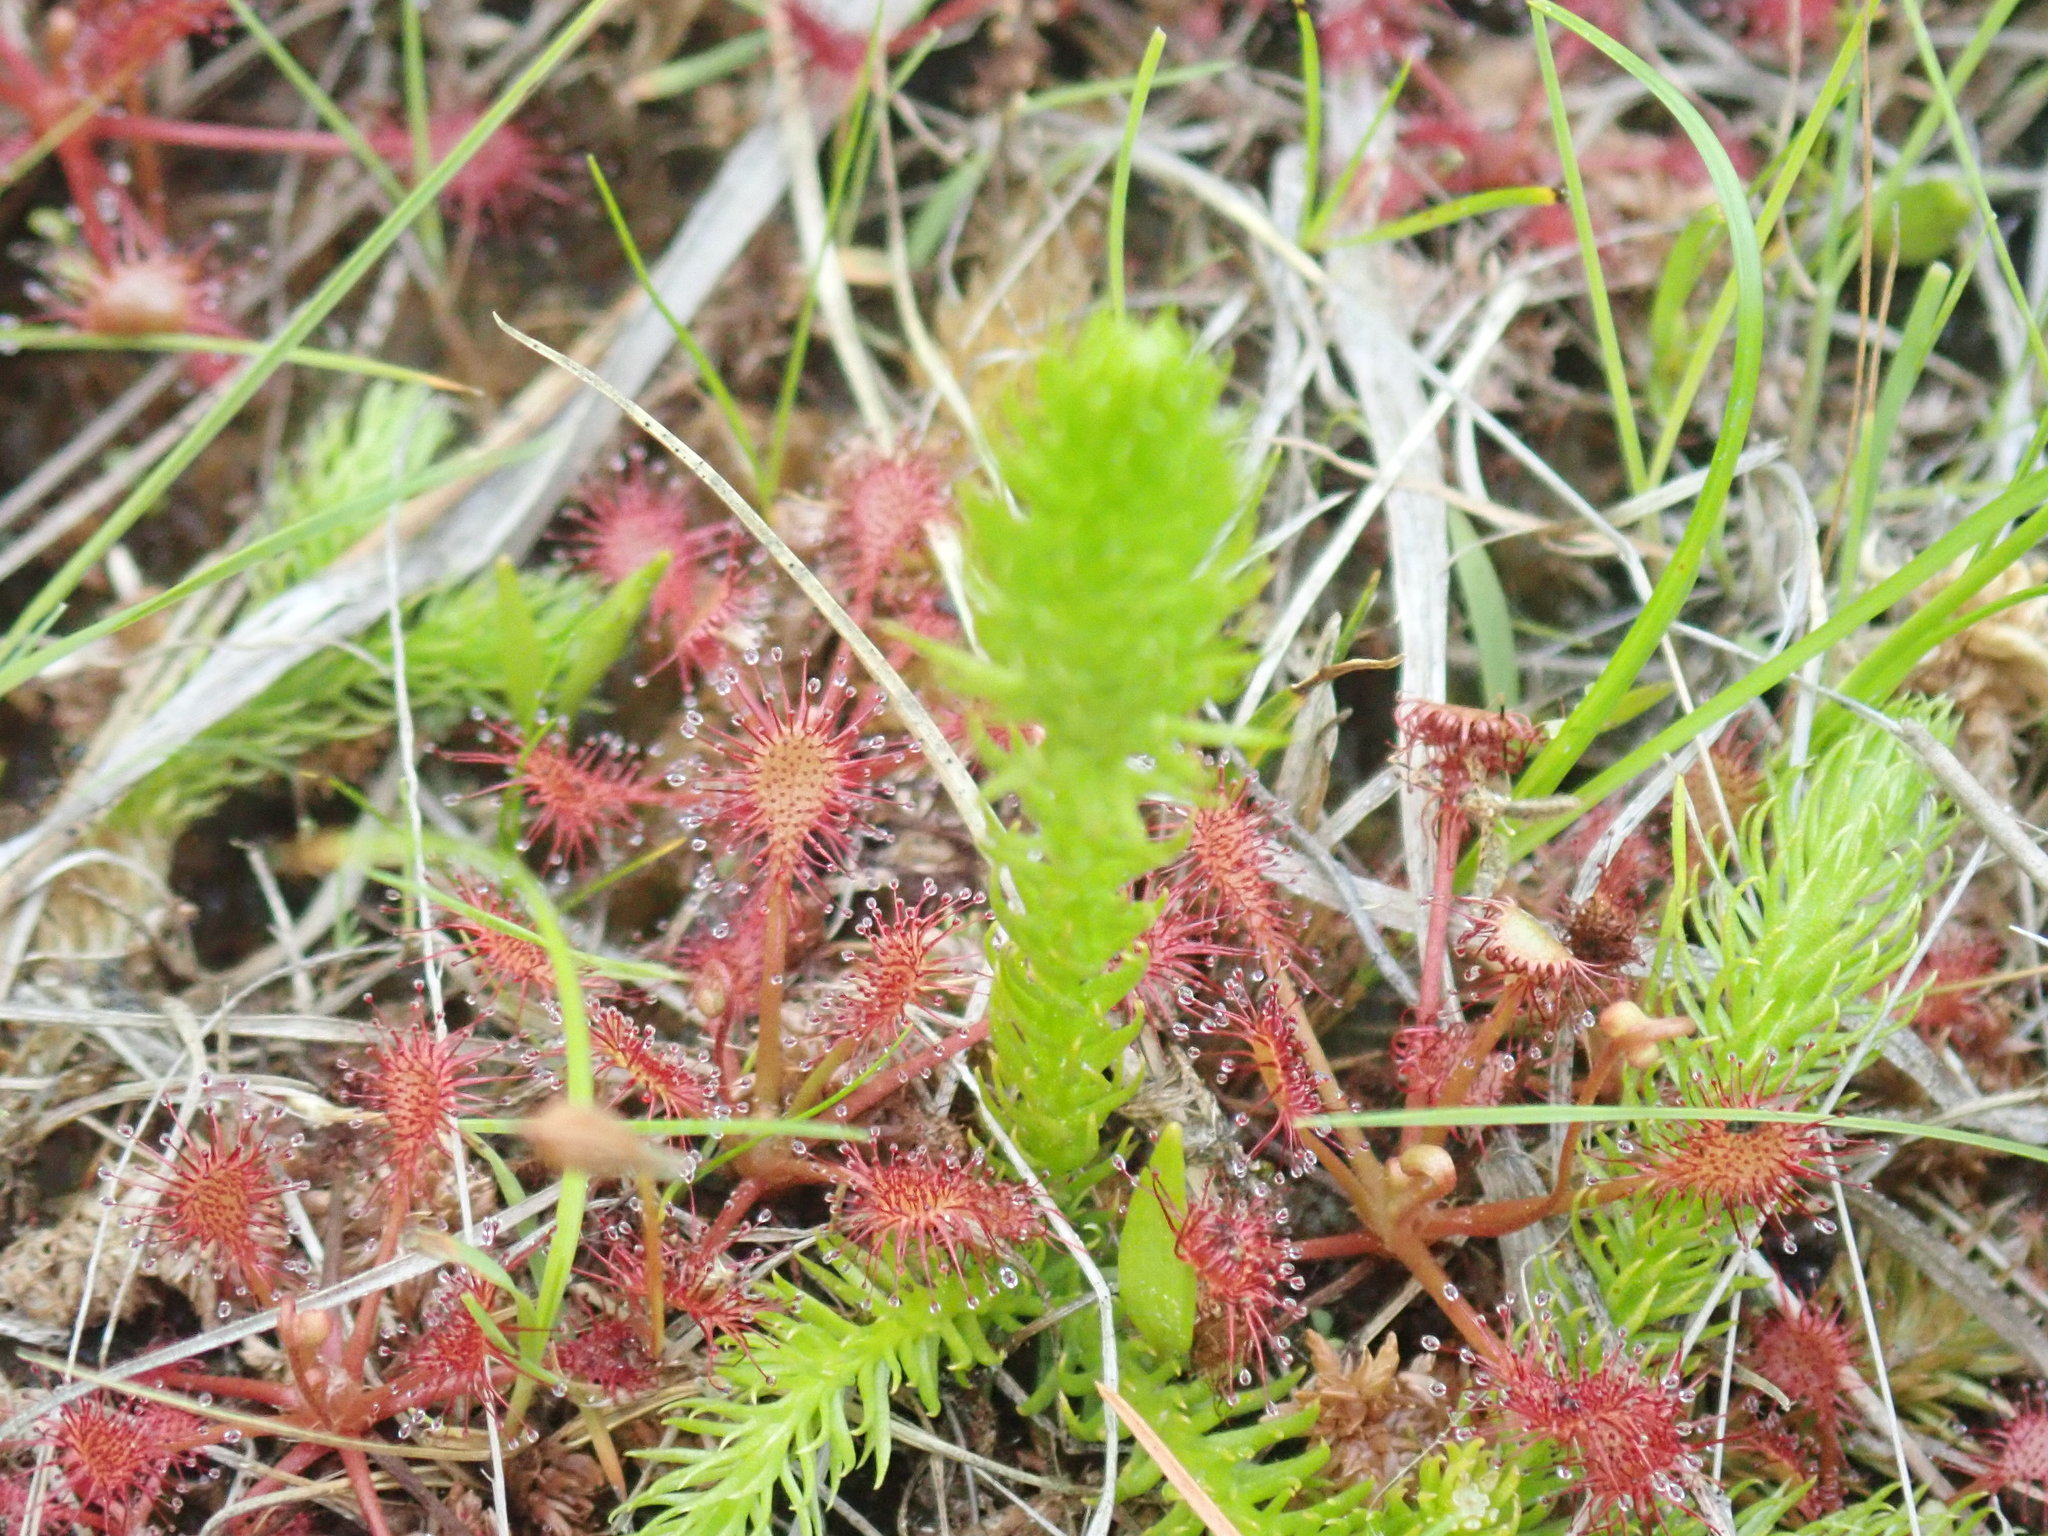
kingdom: Plantae
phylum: Tracheophyta
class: Lycopodiopsida
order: Lycopodiales
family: Lycopodiaceae
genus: Lycopodiella
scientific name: Lycopodiella inundata
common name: Marsh clubmoss
